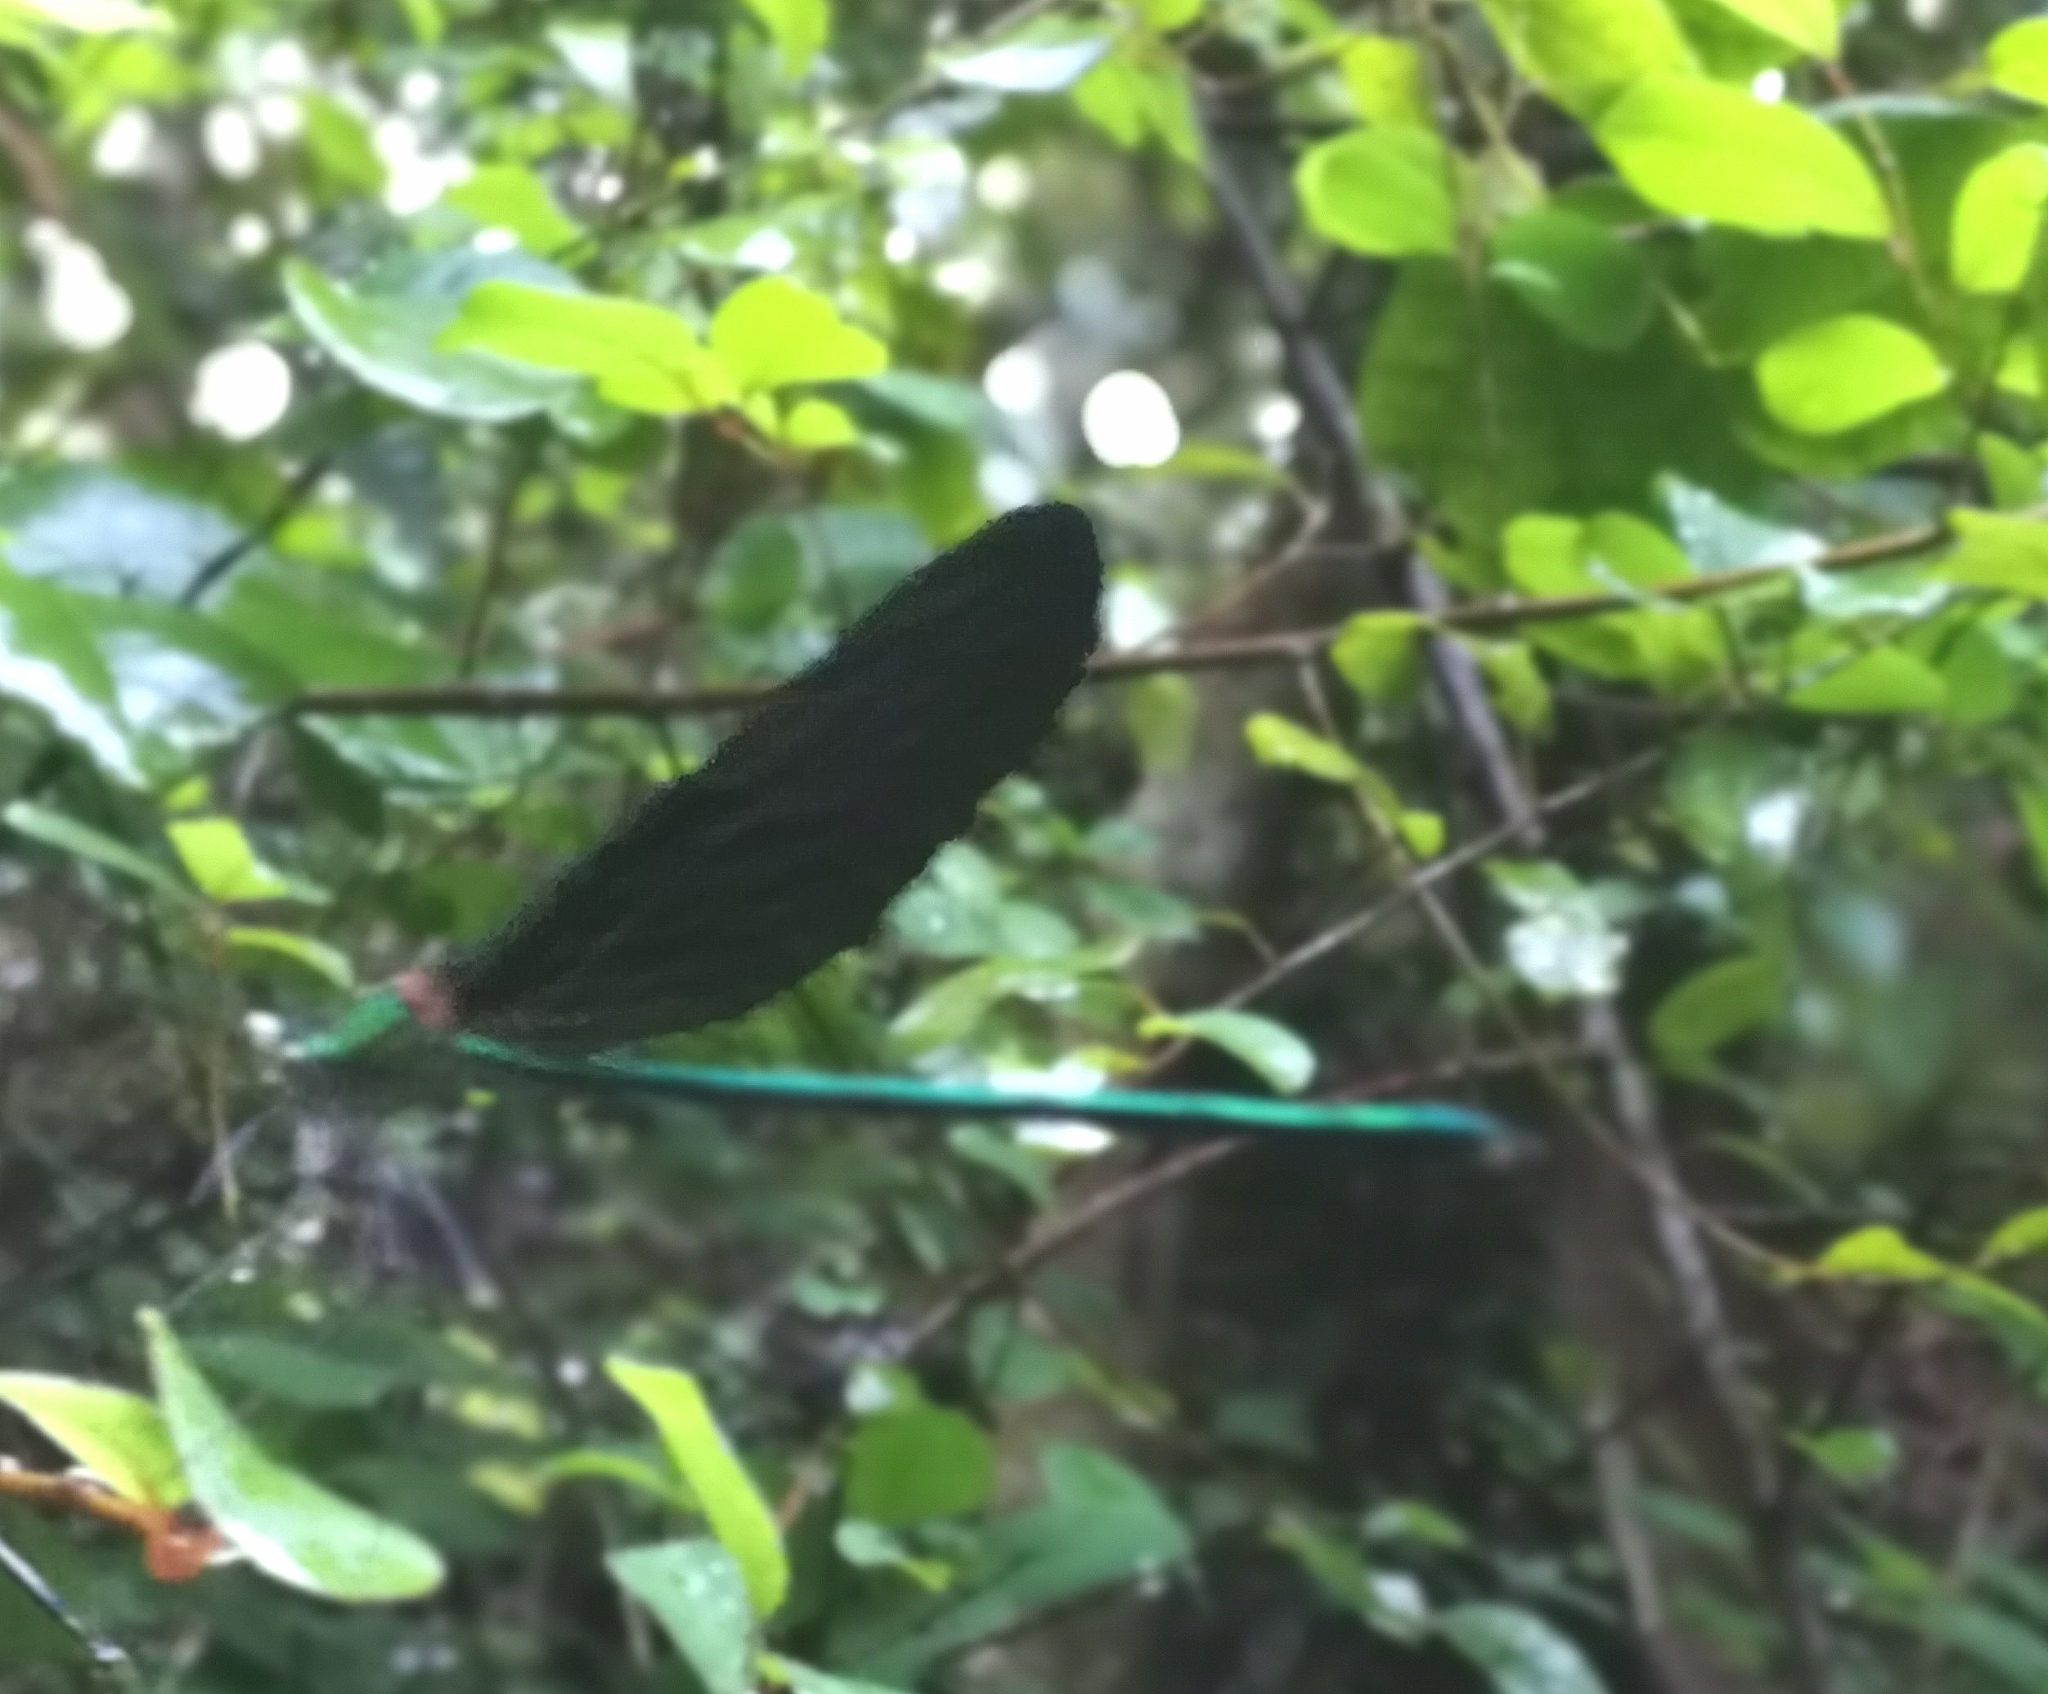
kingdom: Animalia
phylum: Arthropoda
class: Insecta
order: Odonata
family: Calopterygidae
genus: Neurobasis
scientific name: Neurobasis chinensis
